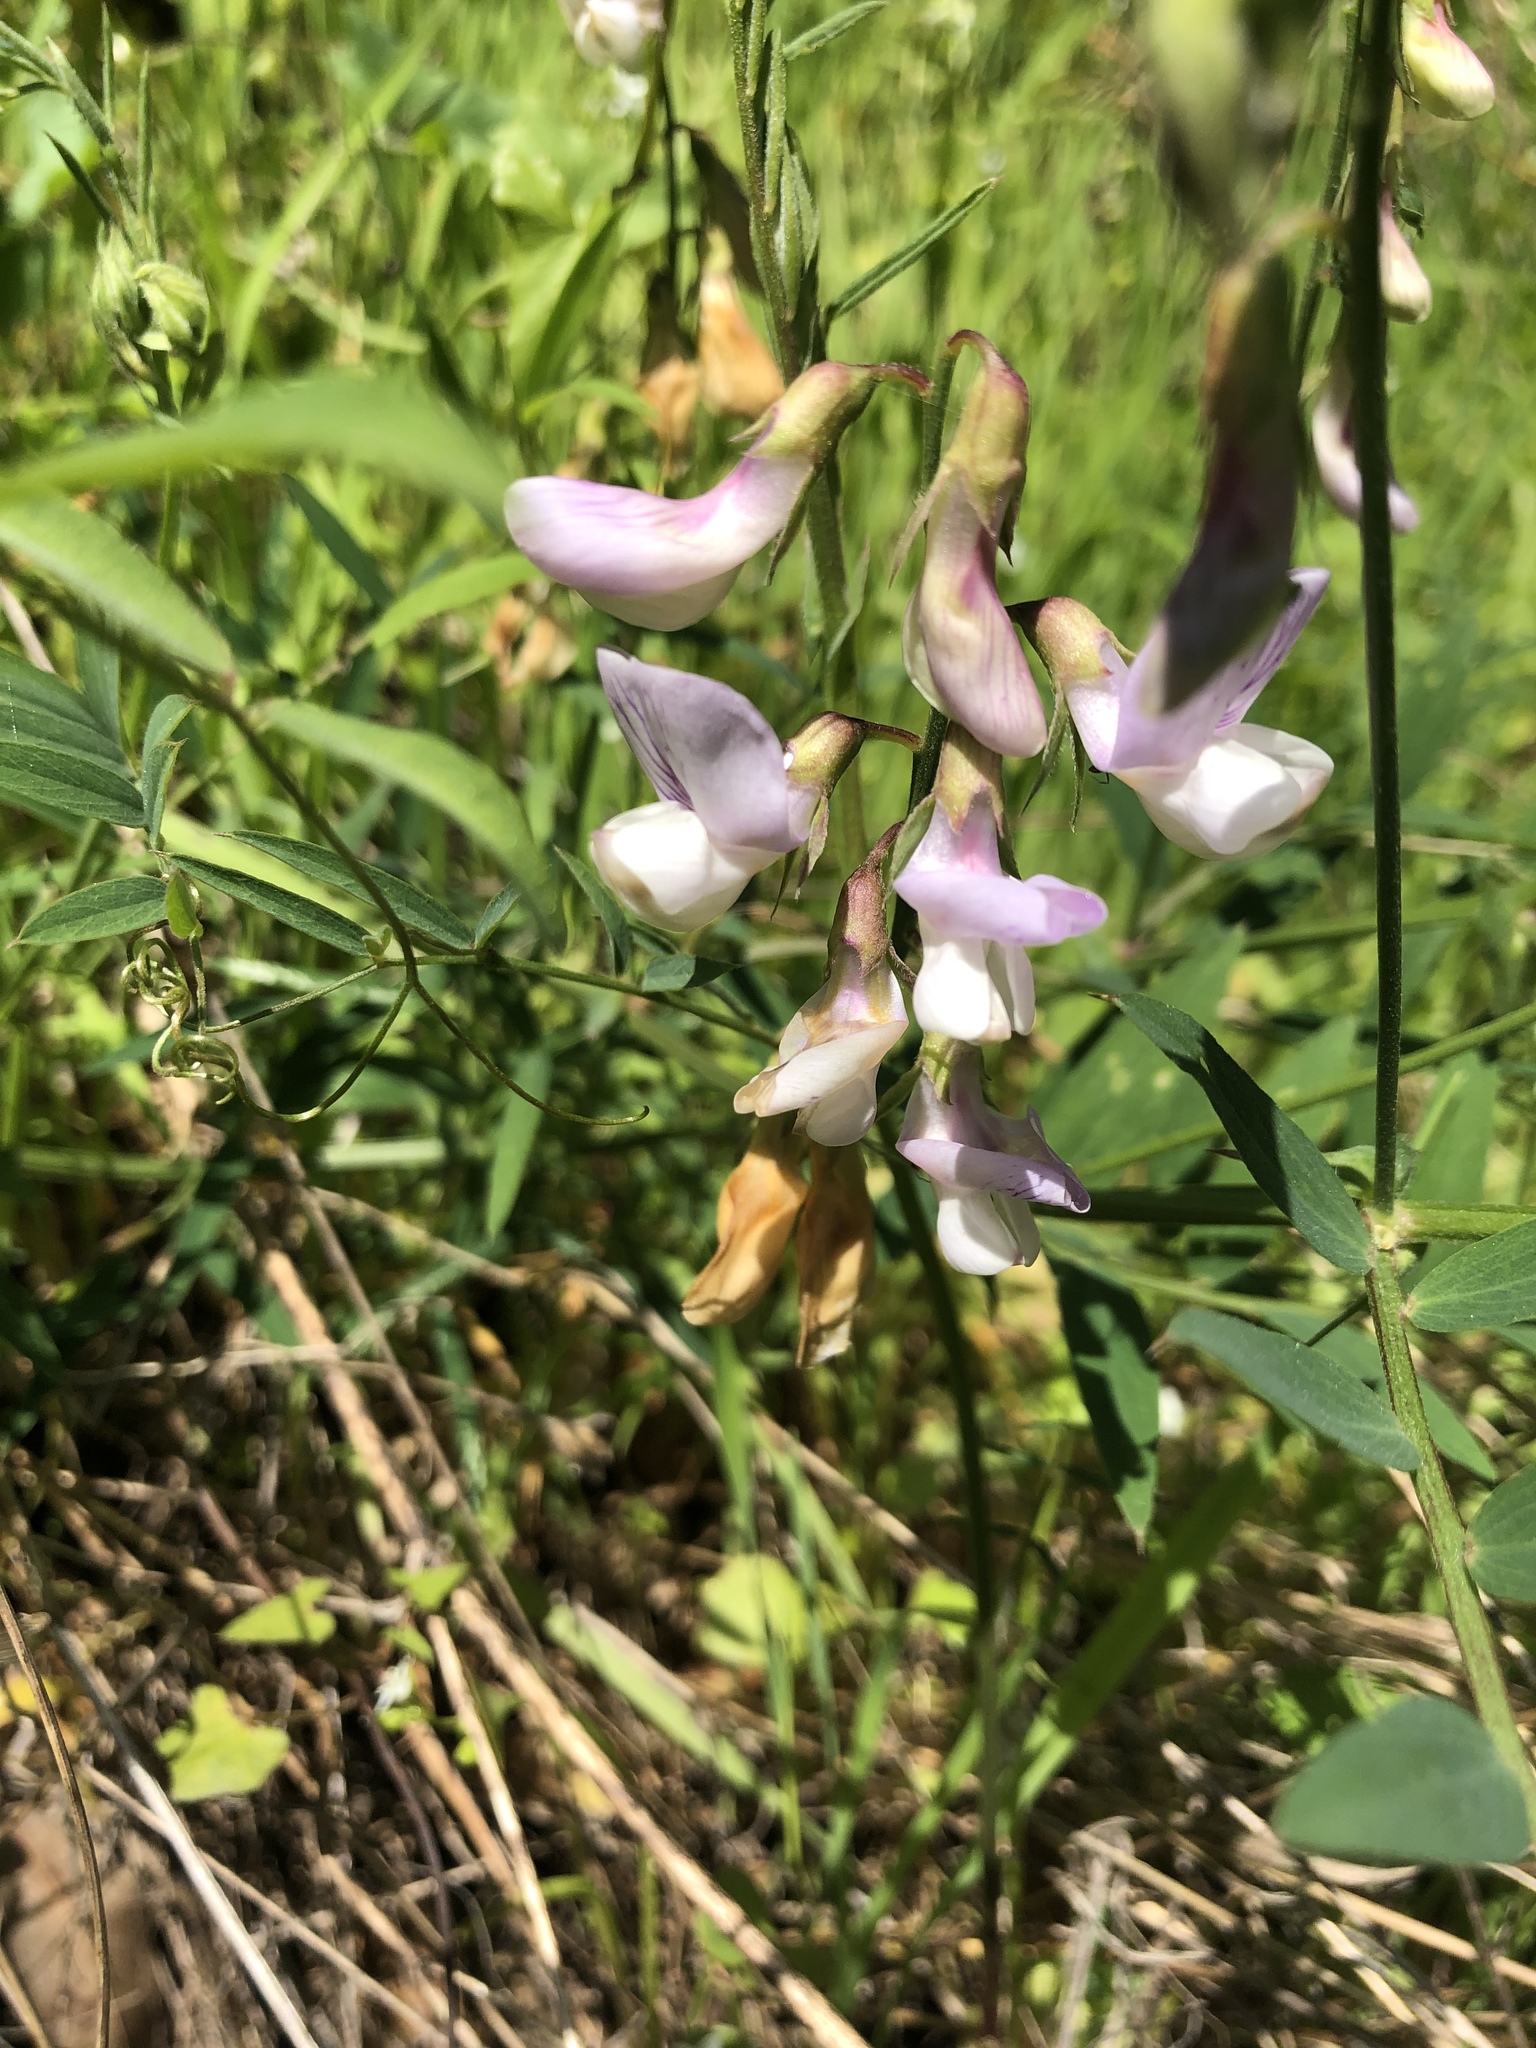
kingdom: Plantae
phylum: Tracheophyta
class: Magnoliopsida
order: Fabales
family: Fabaceae
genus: Lathyrus
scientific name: Lathyrus vestitus
